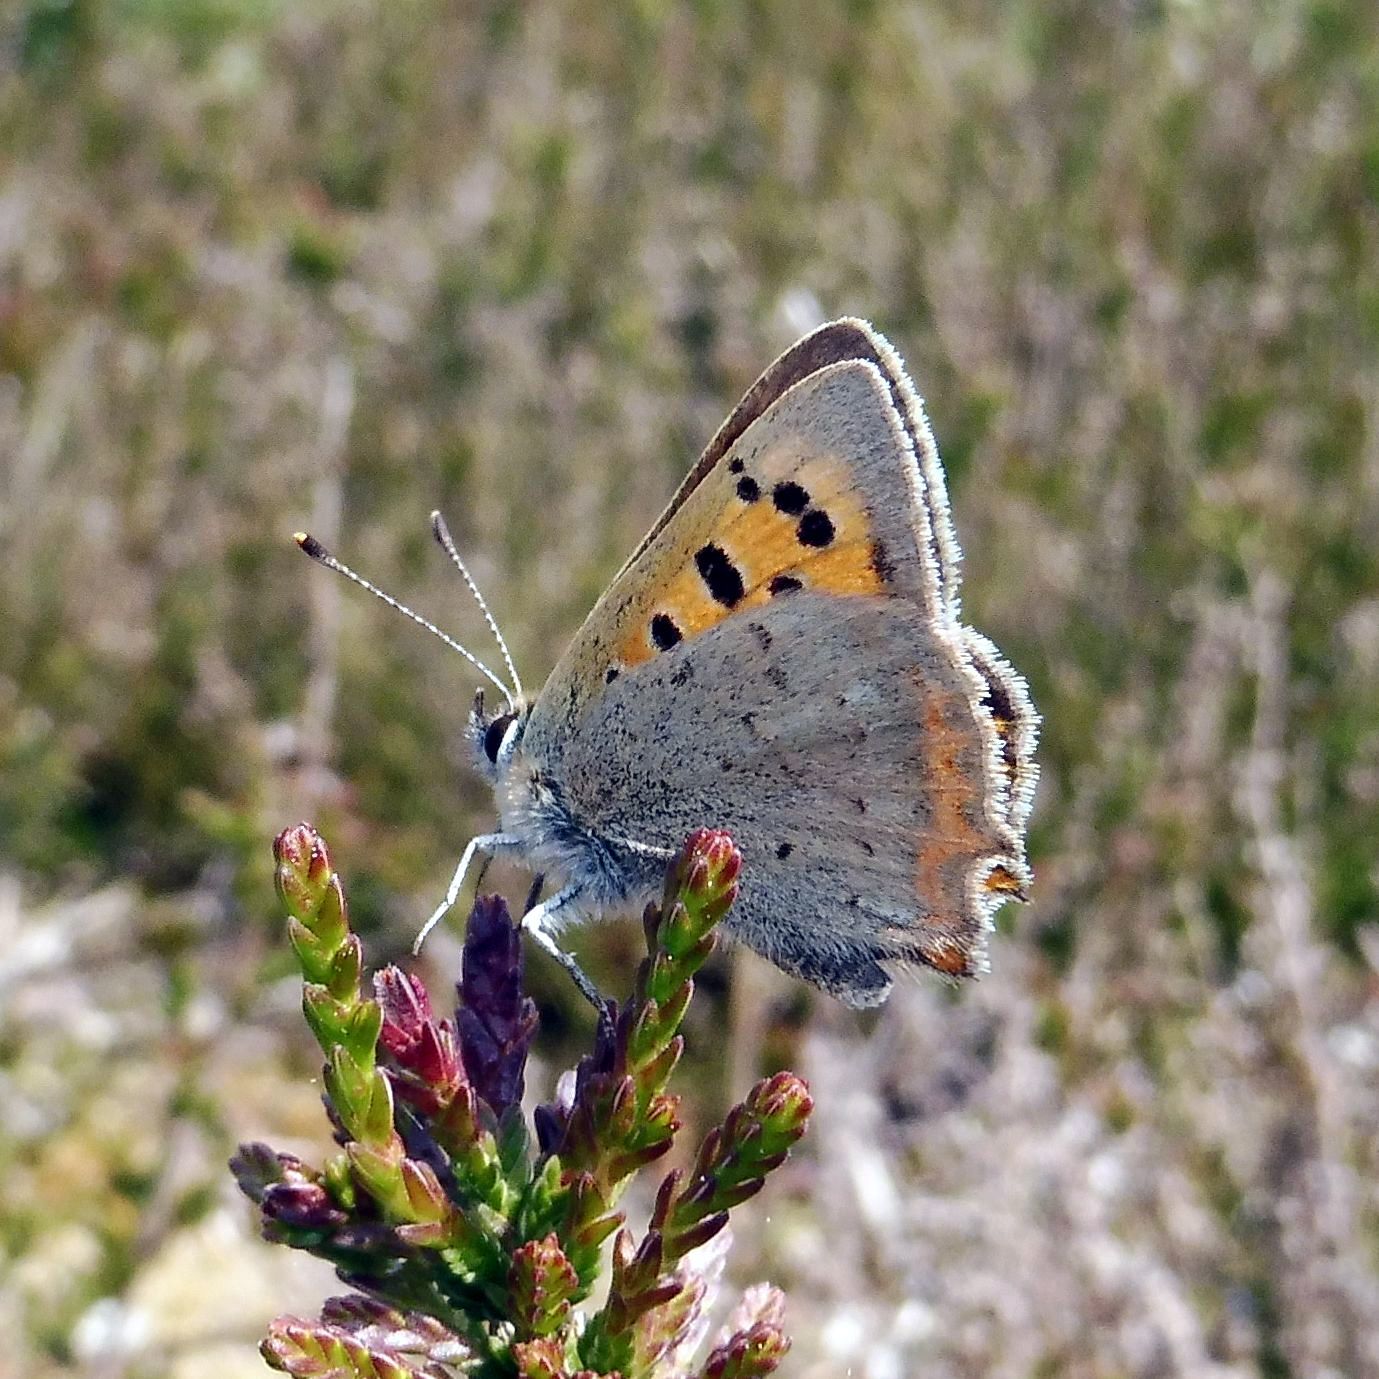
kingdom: Animalia
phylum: Arthropoda
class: Insecta
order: Lepidoptera
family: Lycaenidae
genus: Lycaena
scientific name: Lycaena phlaeas
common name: Small copper
